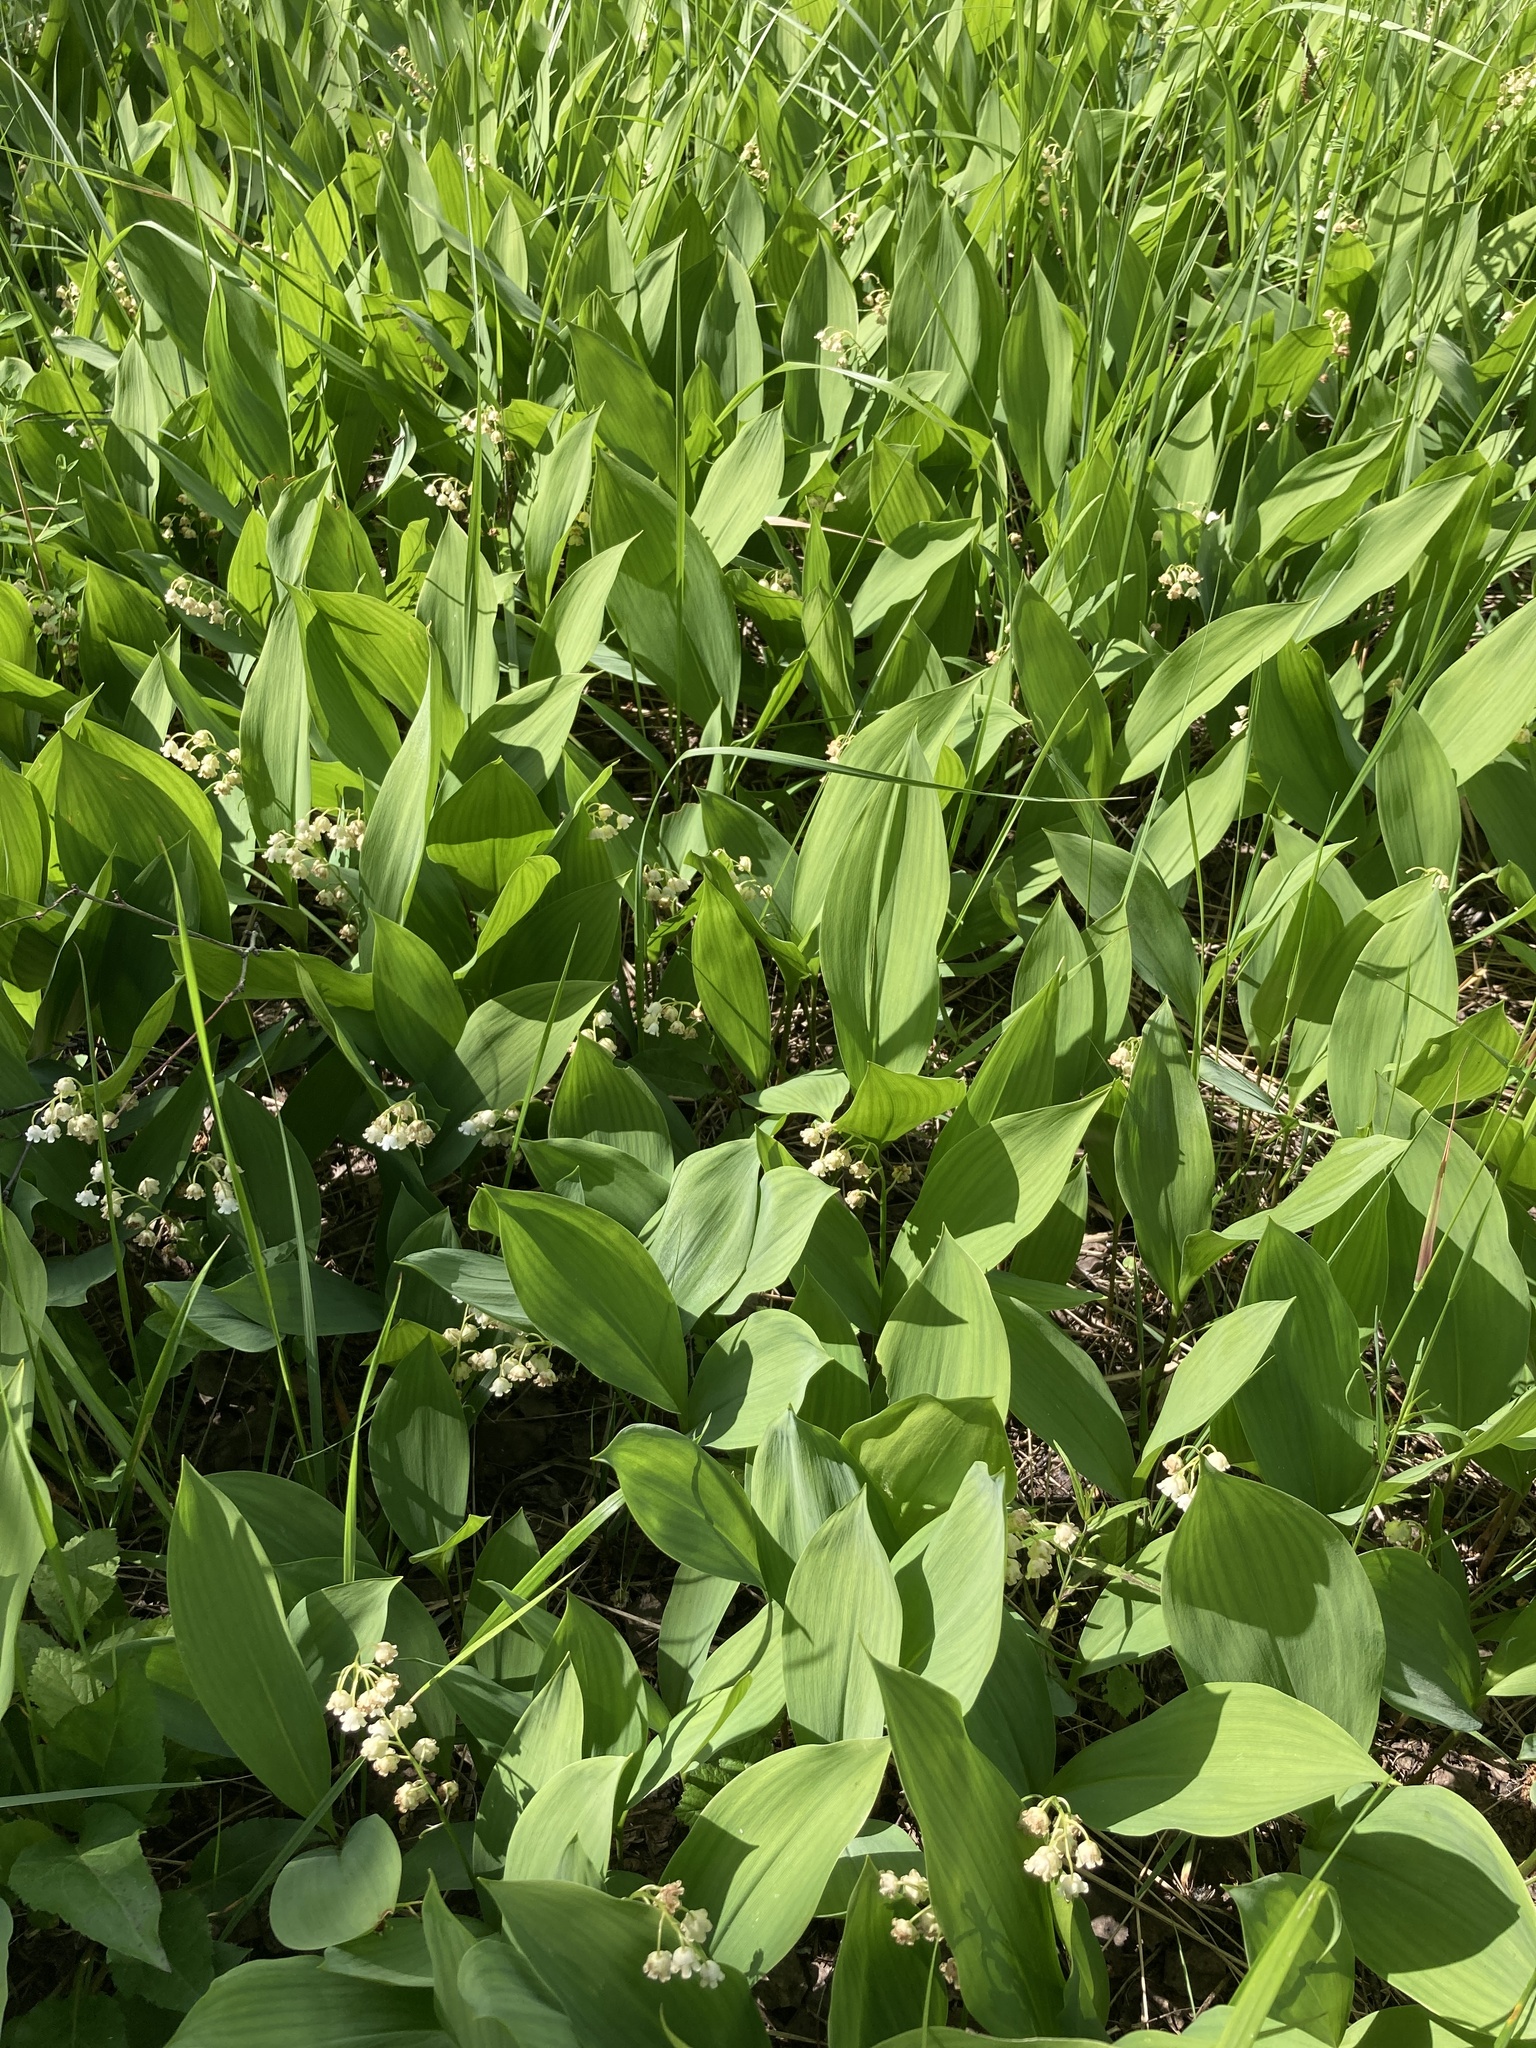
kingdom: Plantae
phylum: Tracheophyta
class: Liliopsida
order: Asparagales
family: Asparagaceae
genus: Convallaria
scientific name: Convallaria majalis
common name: Lily-of-the-valley
